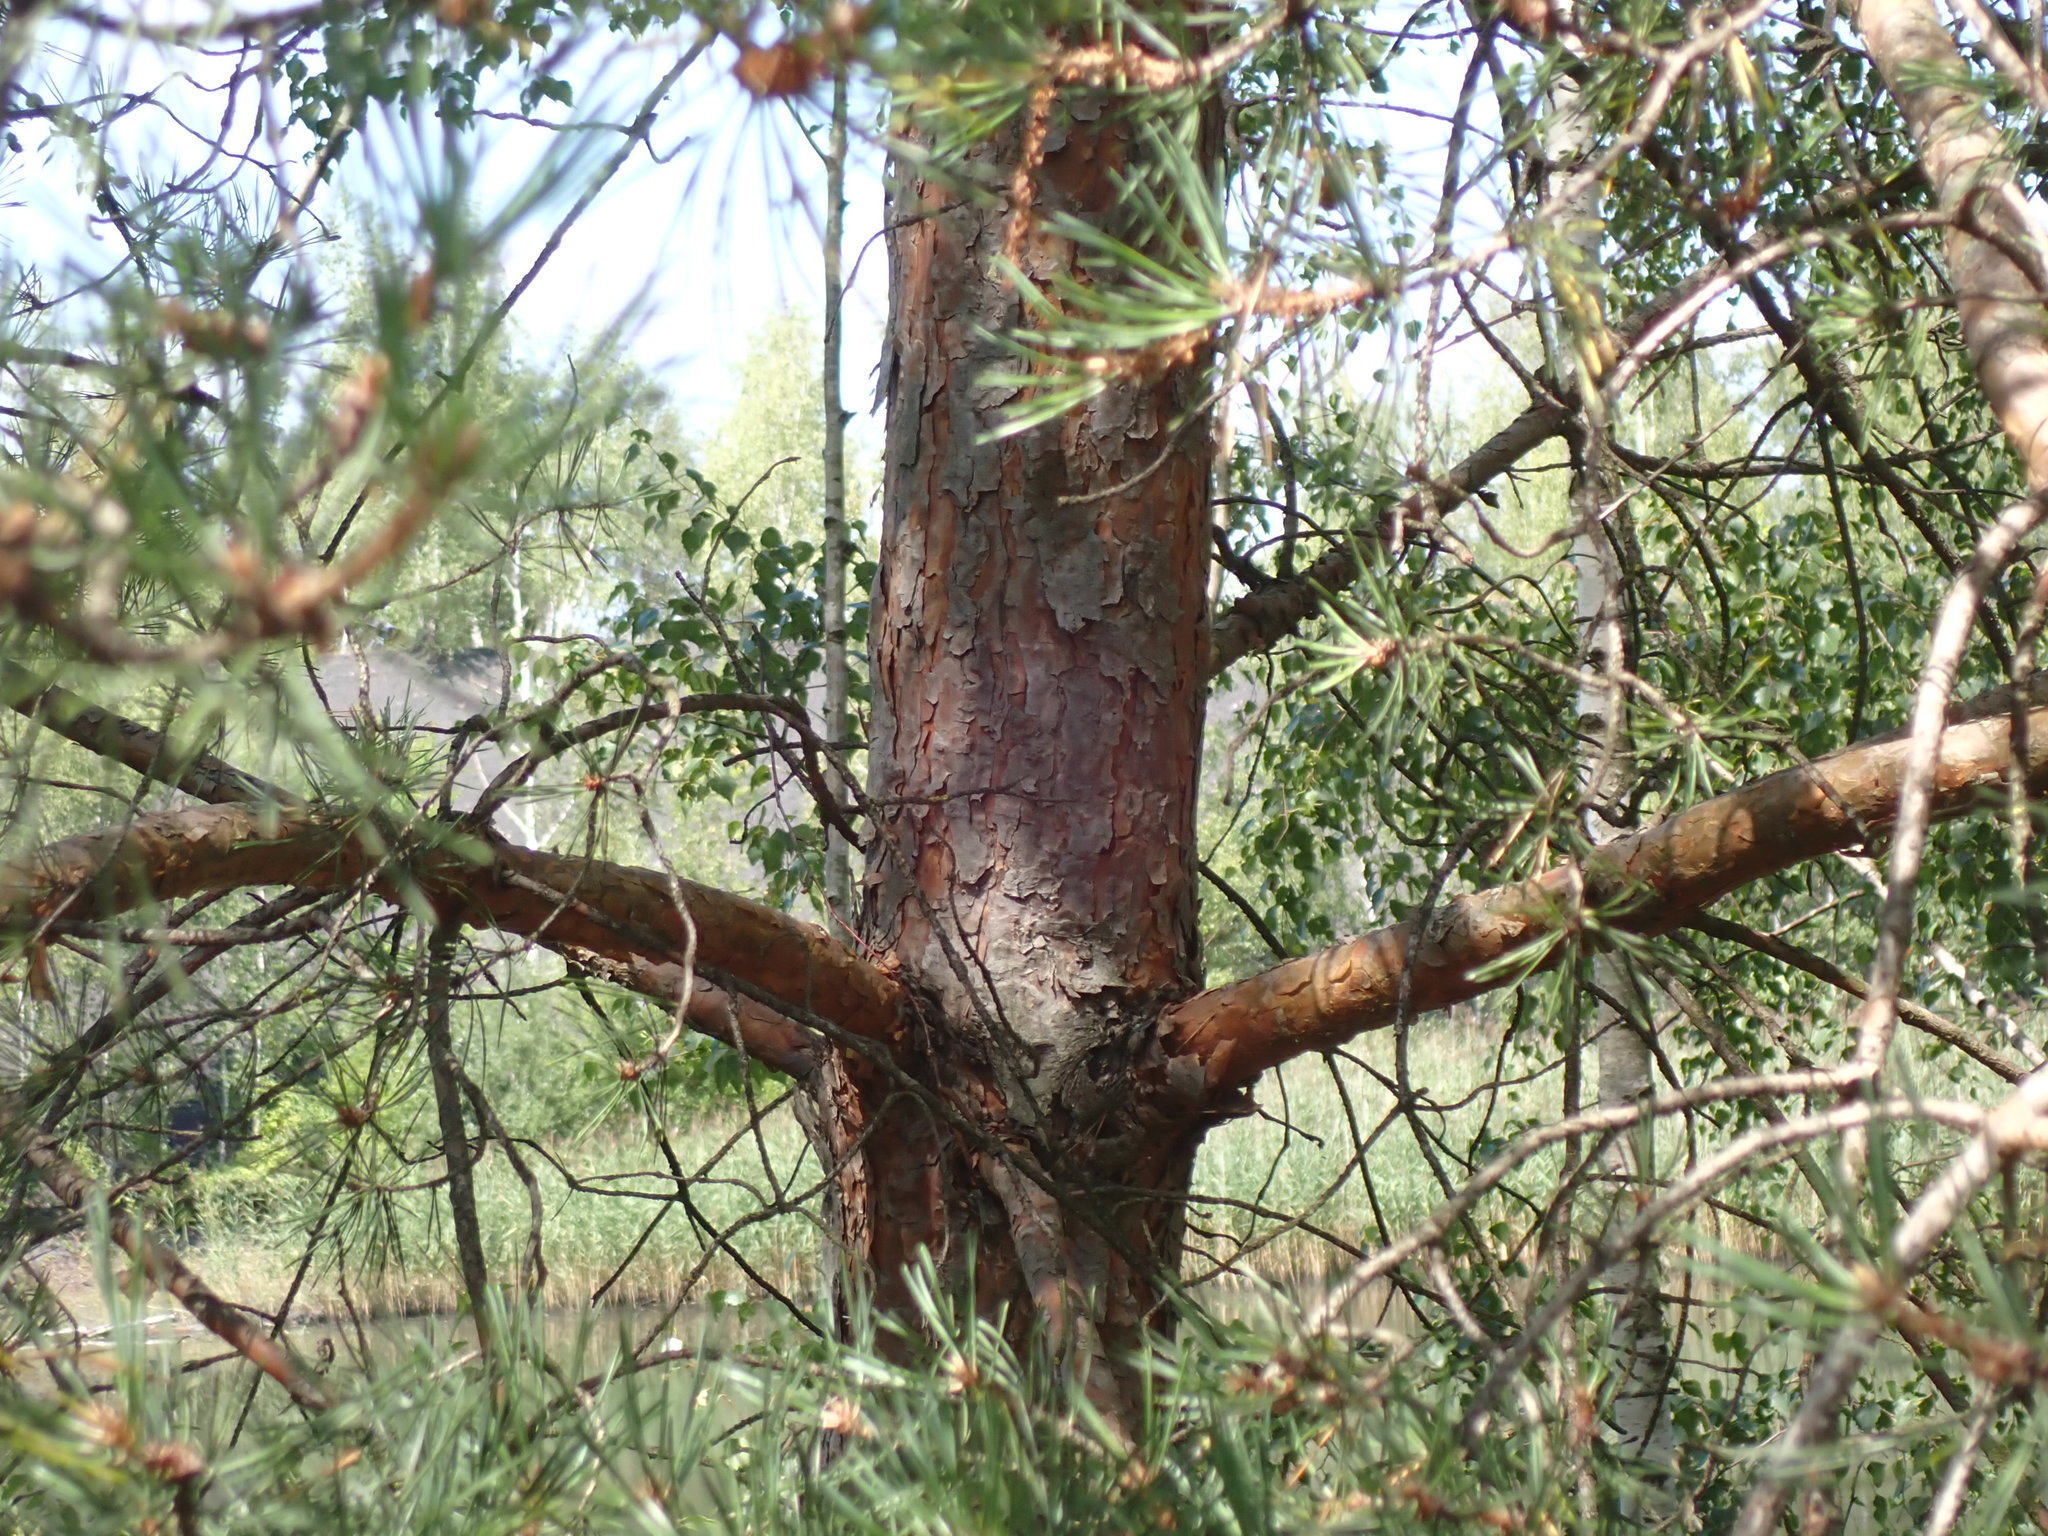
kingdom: Plantae
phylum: Tracheophyta
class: Pinopsida
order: Pinales
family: Pinaceae
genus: Pinus
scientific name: Pinus sylvestris
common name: Scots pine
